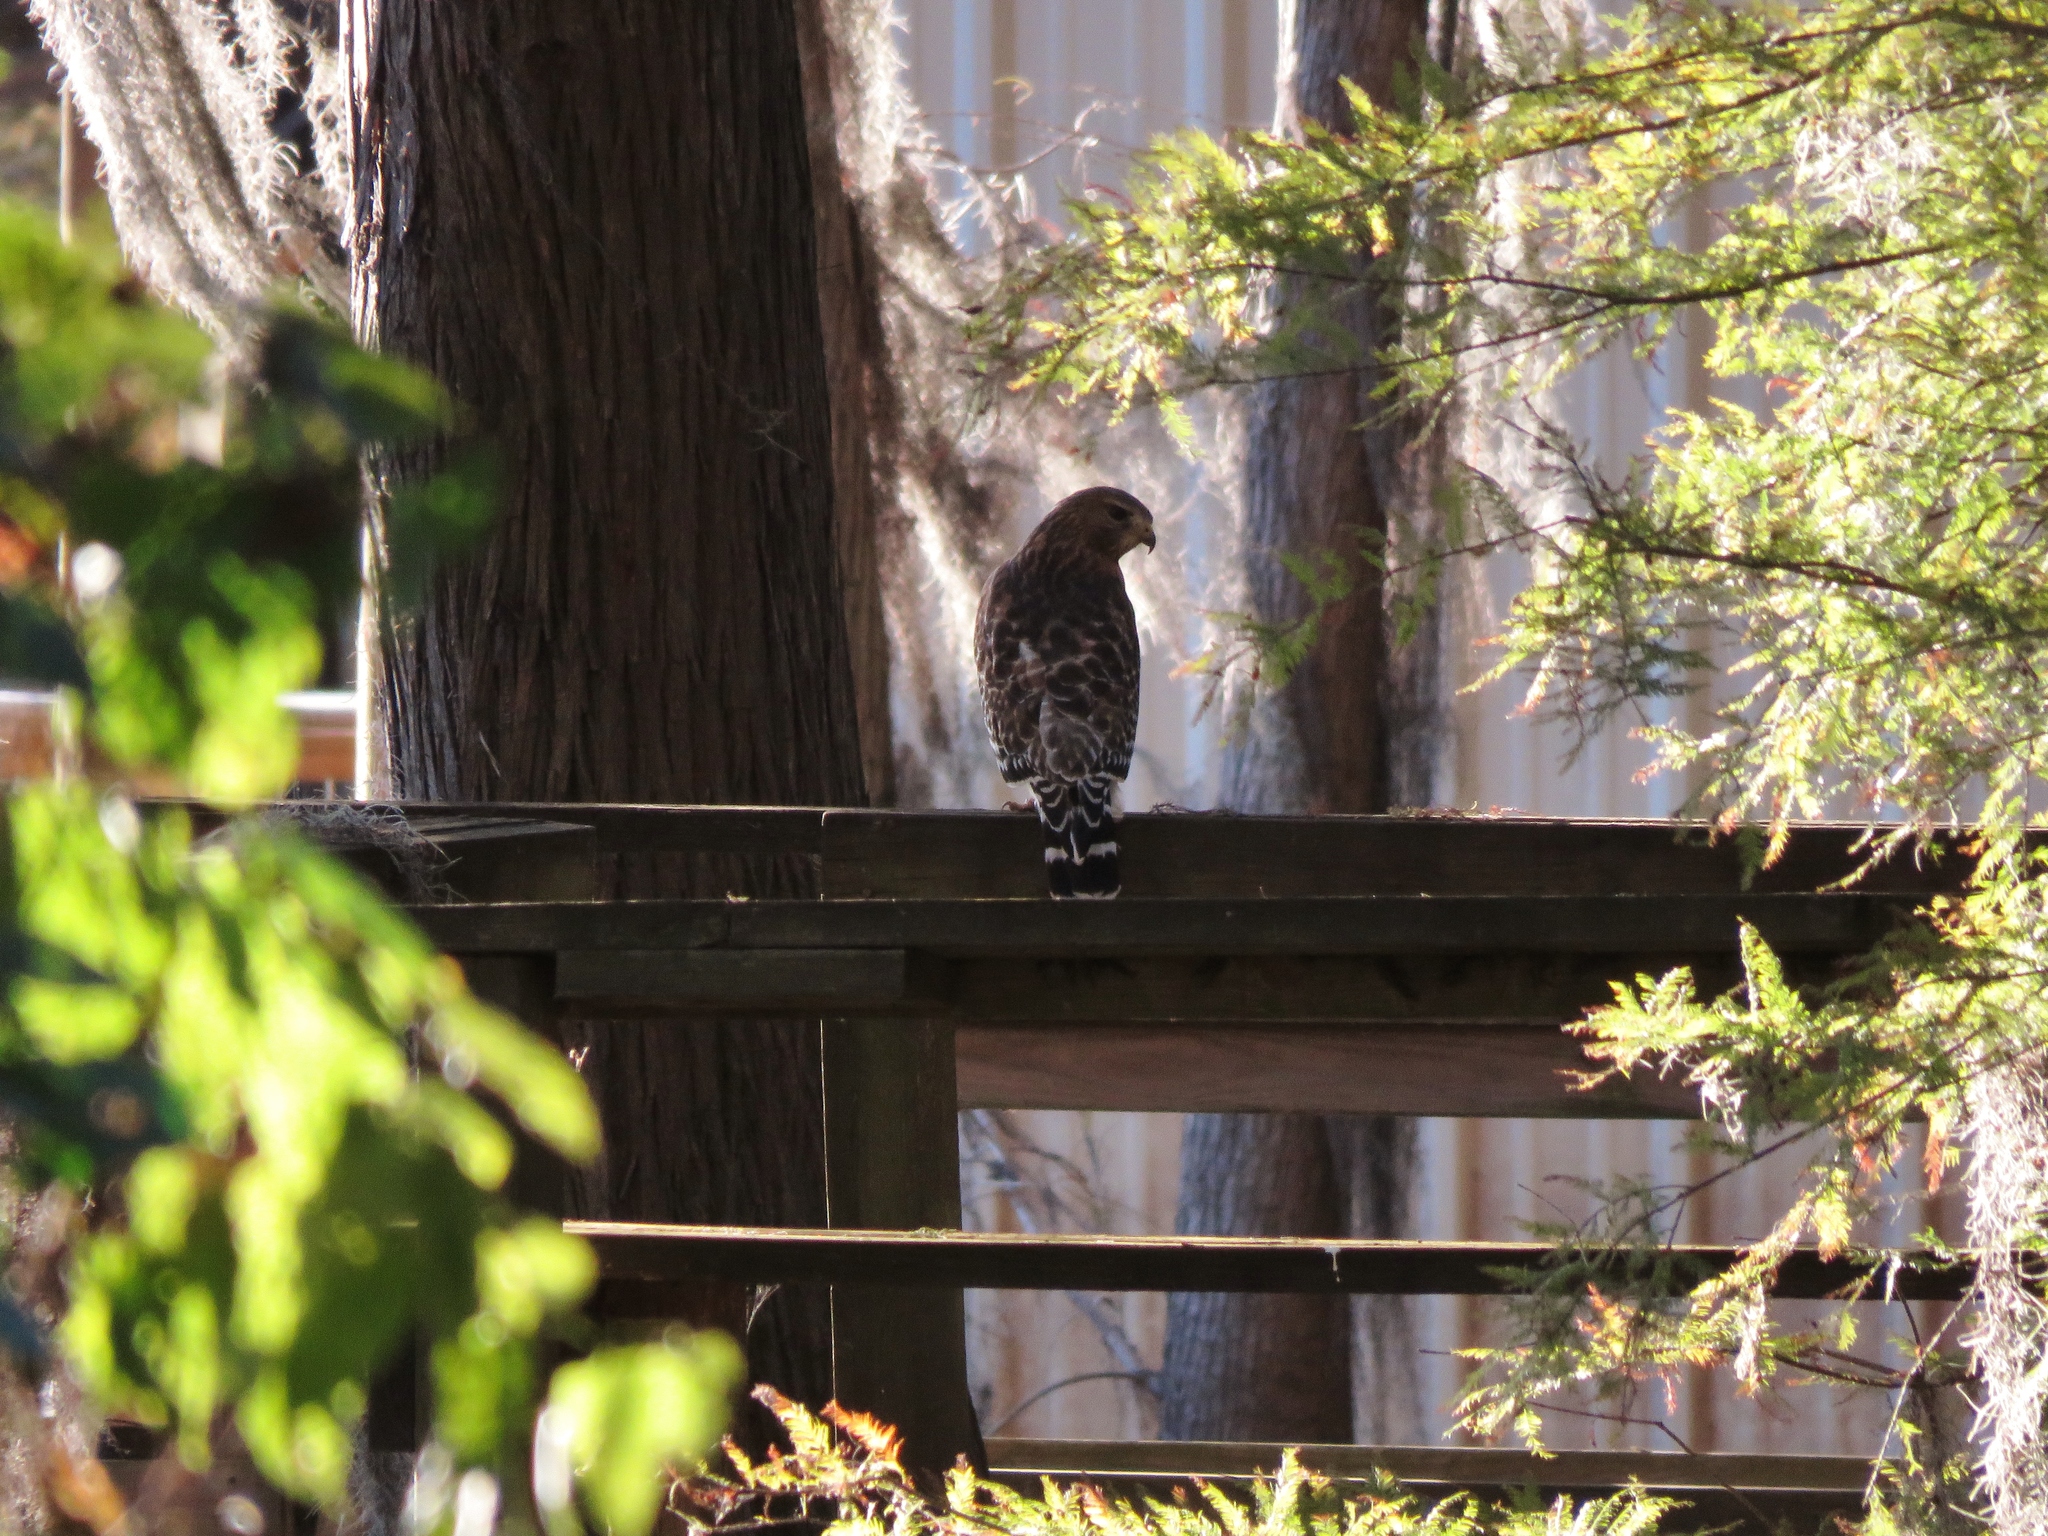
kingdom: Animalia
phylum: Chordata
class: Aves
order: Accipitriformes
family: Accipitridae
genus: Buteo
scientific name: Buteo lineatus
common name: Red-shouldered hawk
